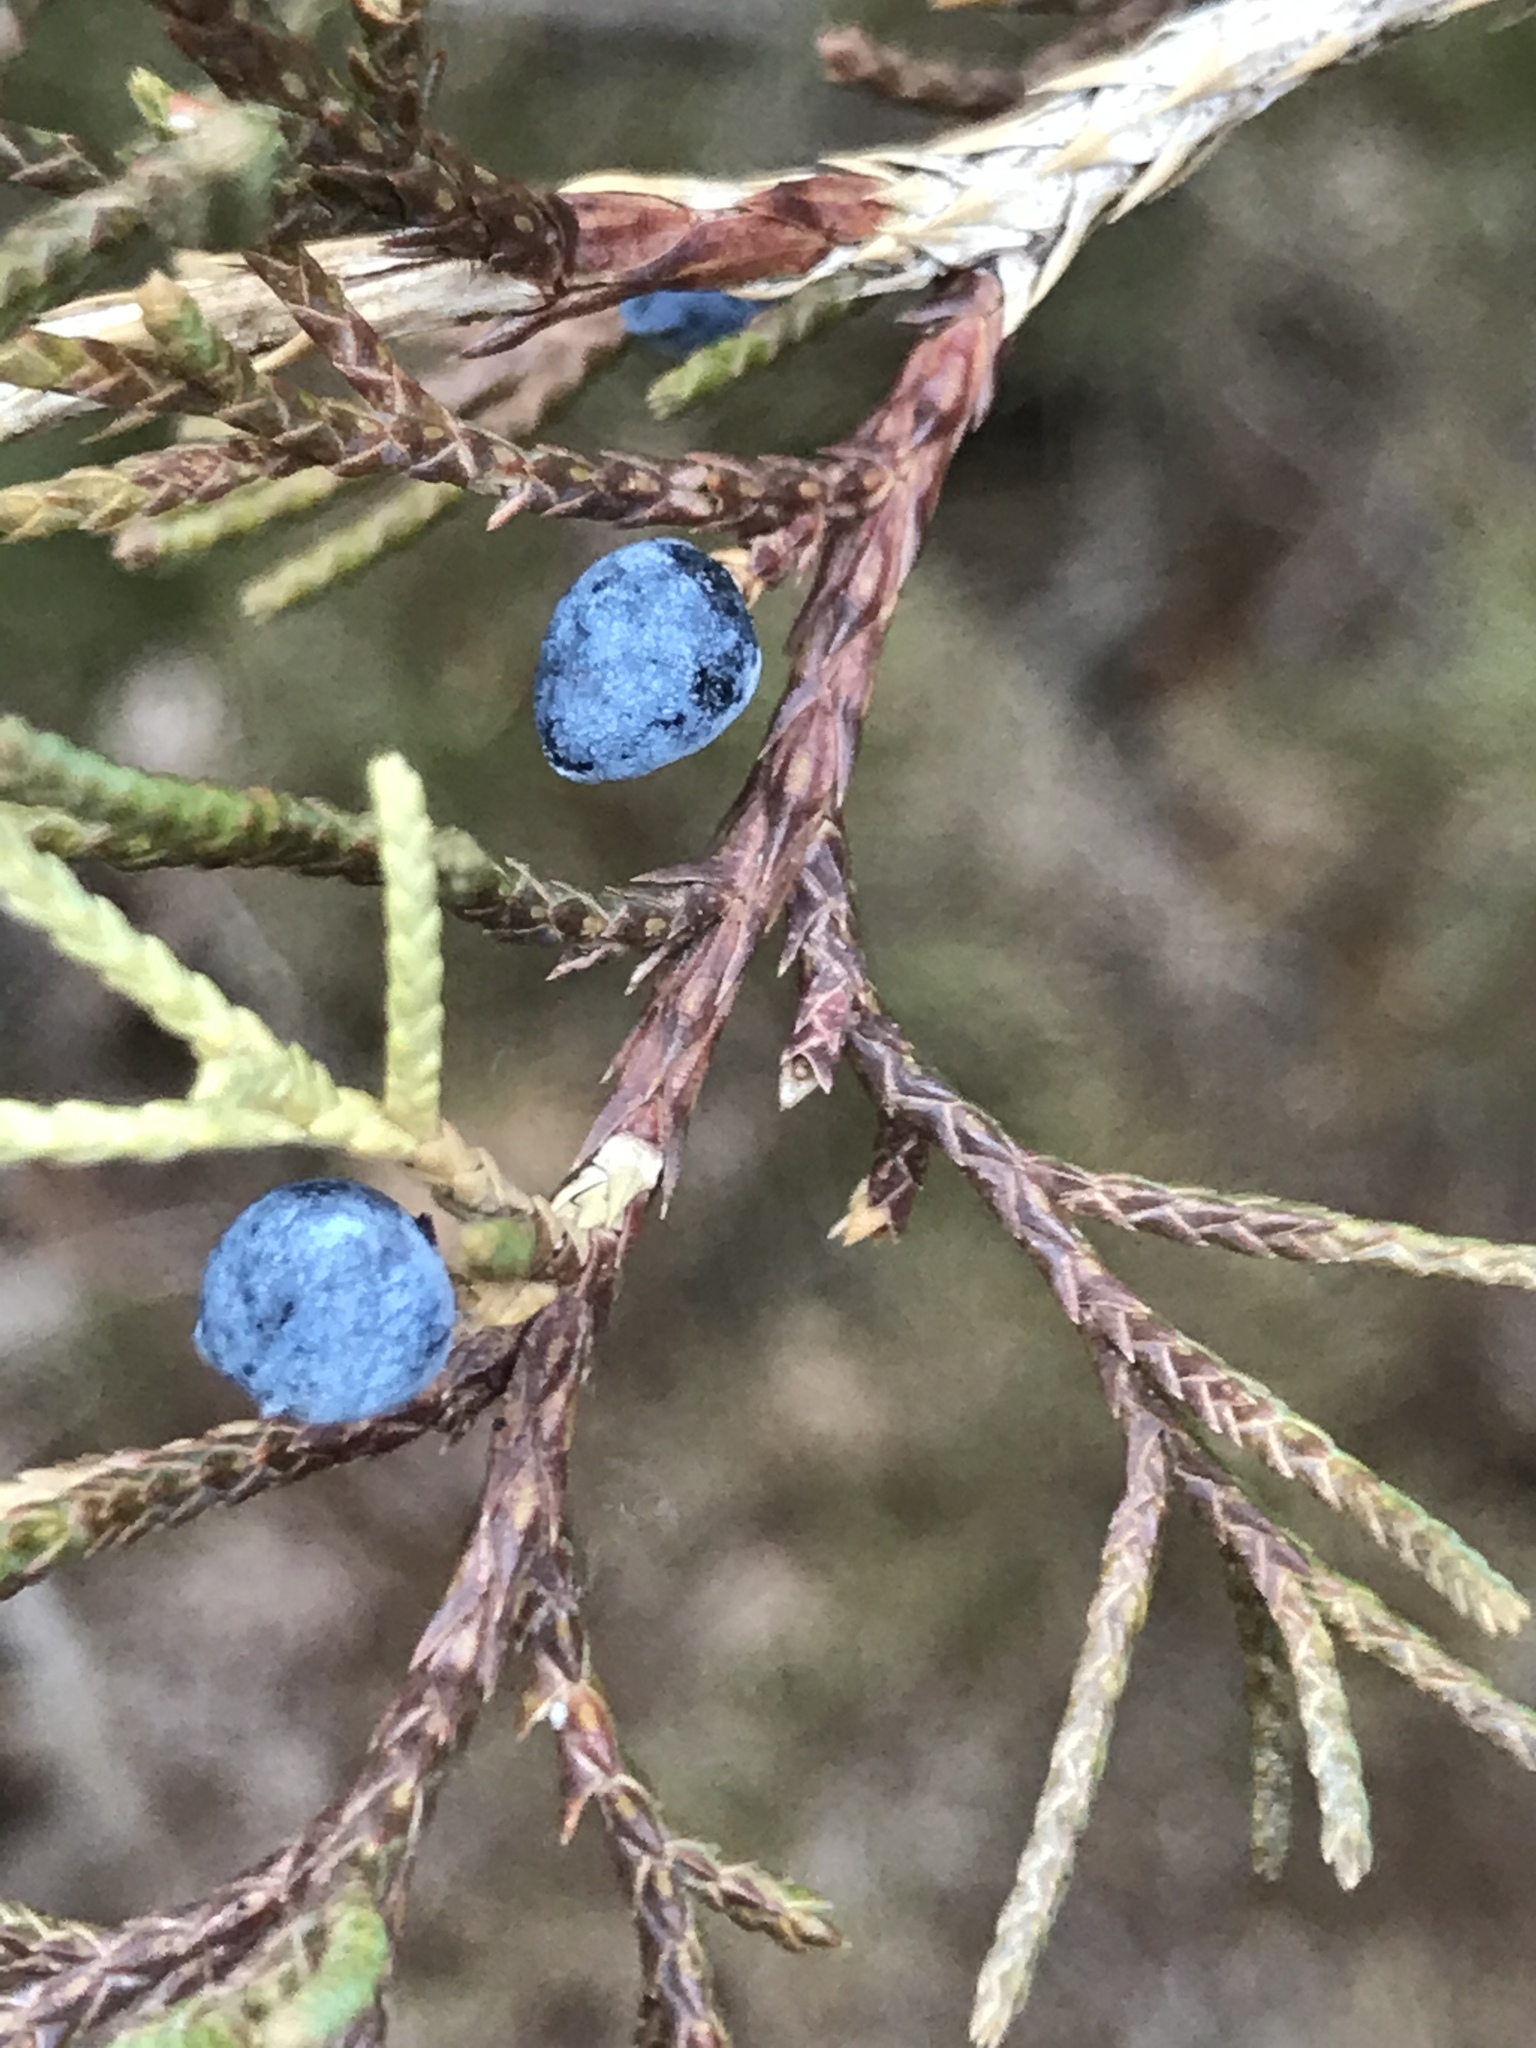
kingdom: Plantae
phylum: Tracheophyta
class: Pinopsida
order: Pinales
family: Cupressaceae
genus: Juniperus
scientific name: Juniperus virginiana
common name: Red juniper
